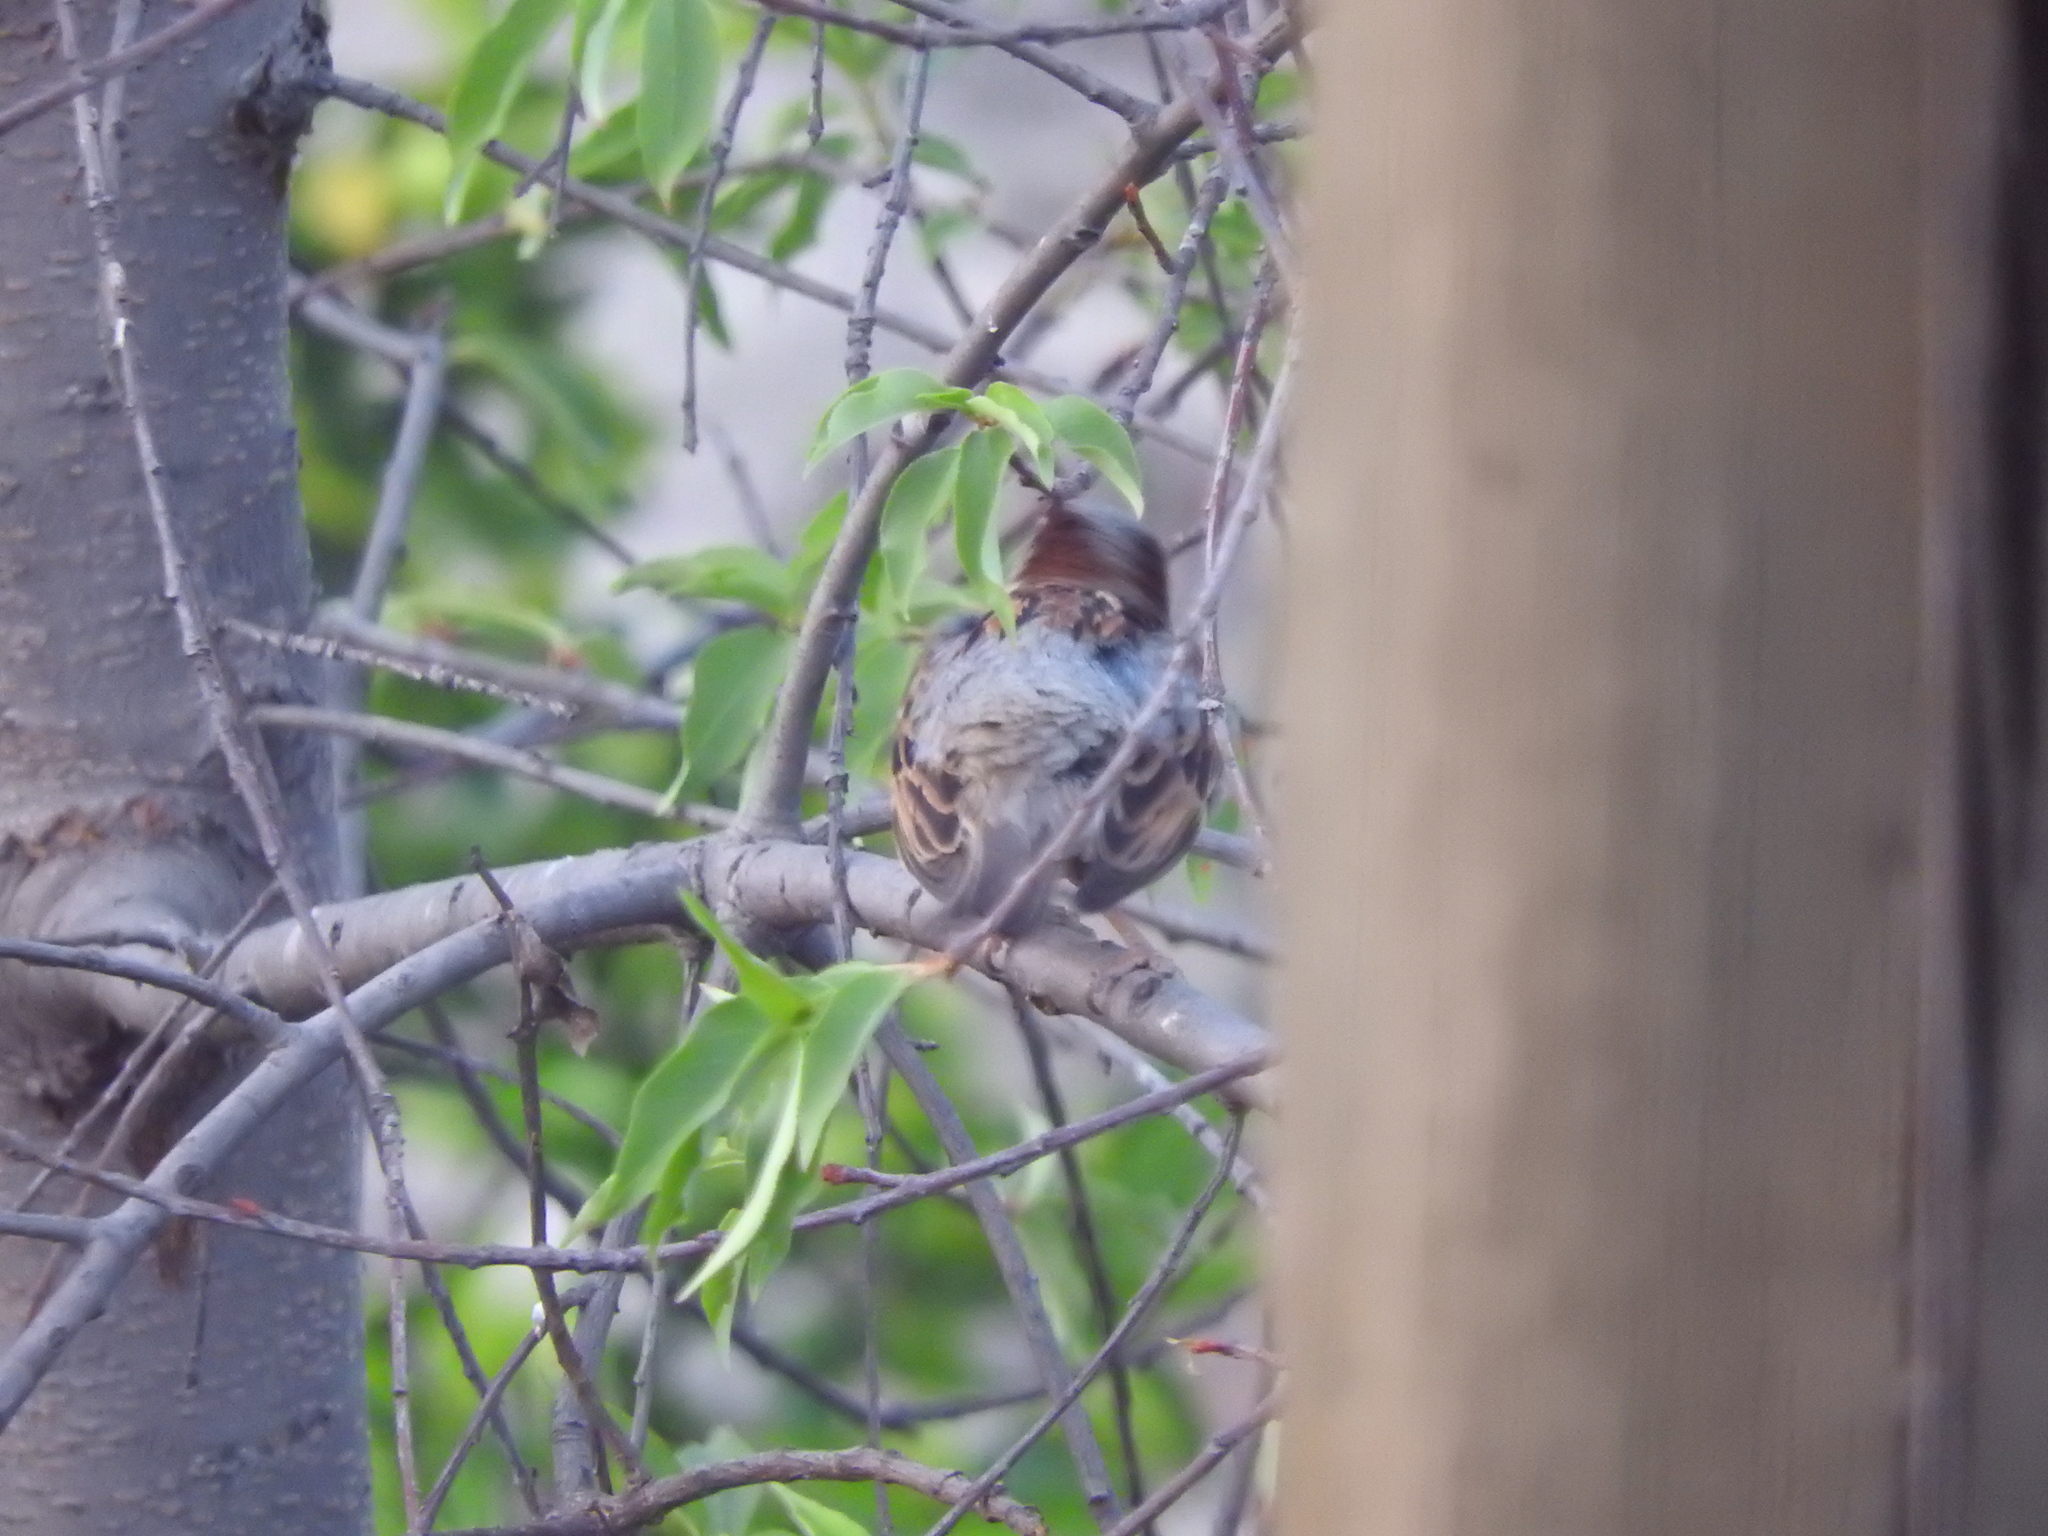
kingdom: Animalia
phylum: Chordata
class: Aves
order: Passeriformes
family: Passeridae
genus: Passer
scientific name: Passer domesticus
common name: House sparrow
